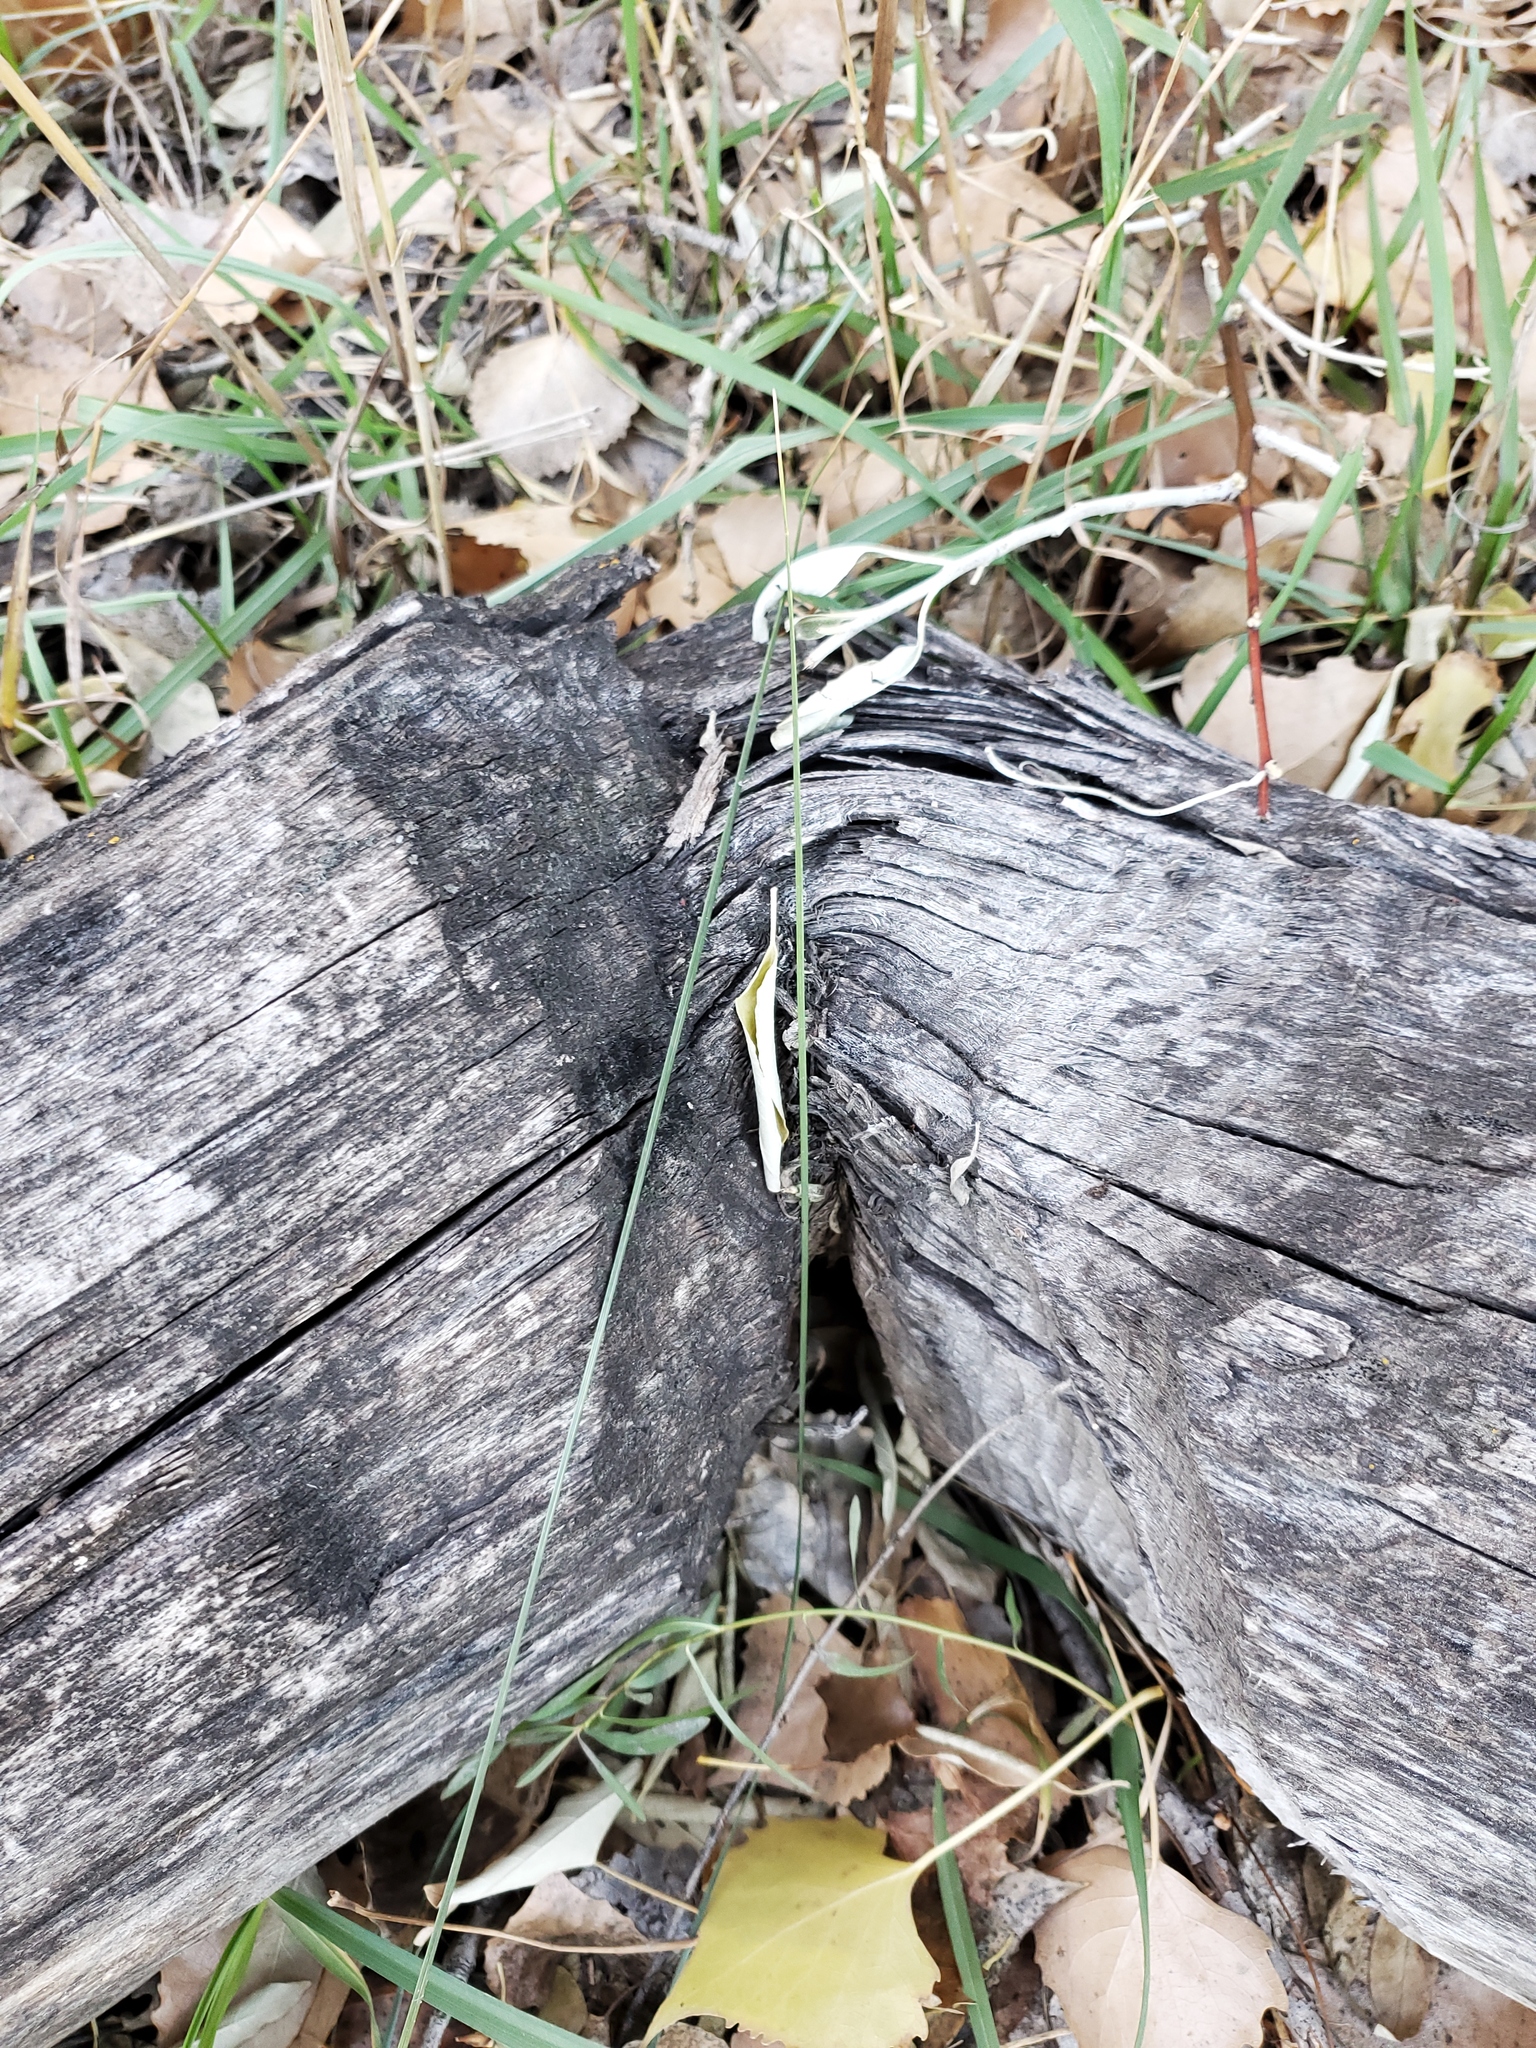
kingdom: Animalia
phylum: Chordata
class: Mammalia
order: Rodentia
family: Castoridae
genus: Castor
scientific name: Castor canadensis
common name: American beaver
